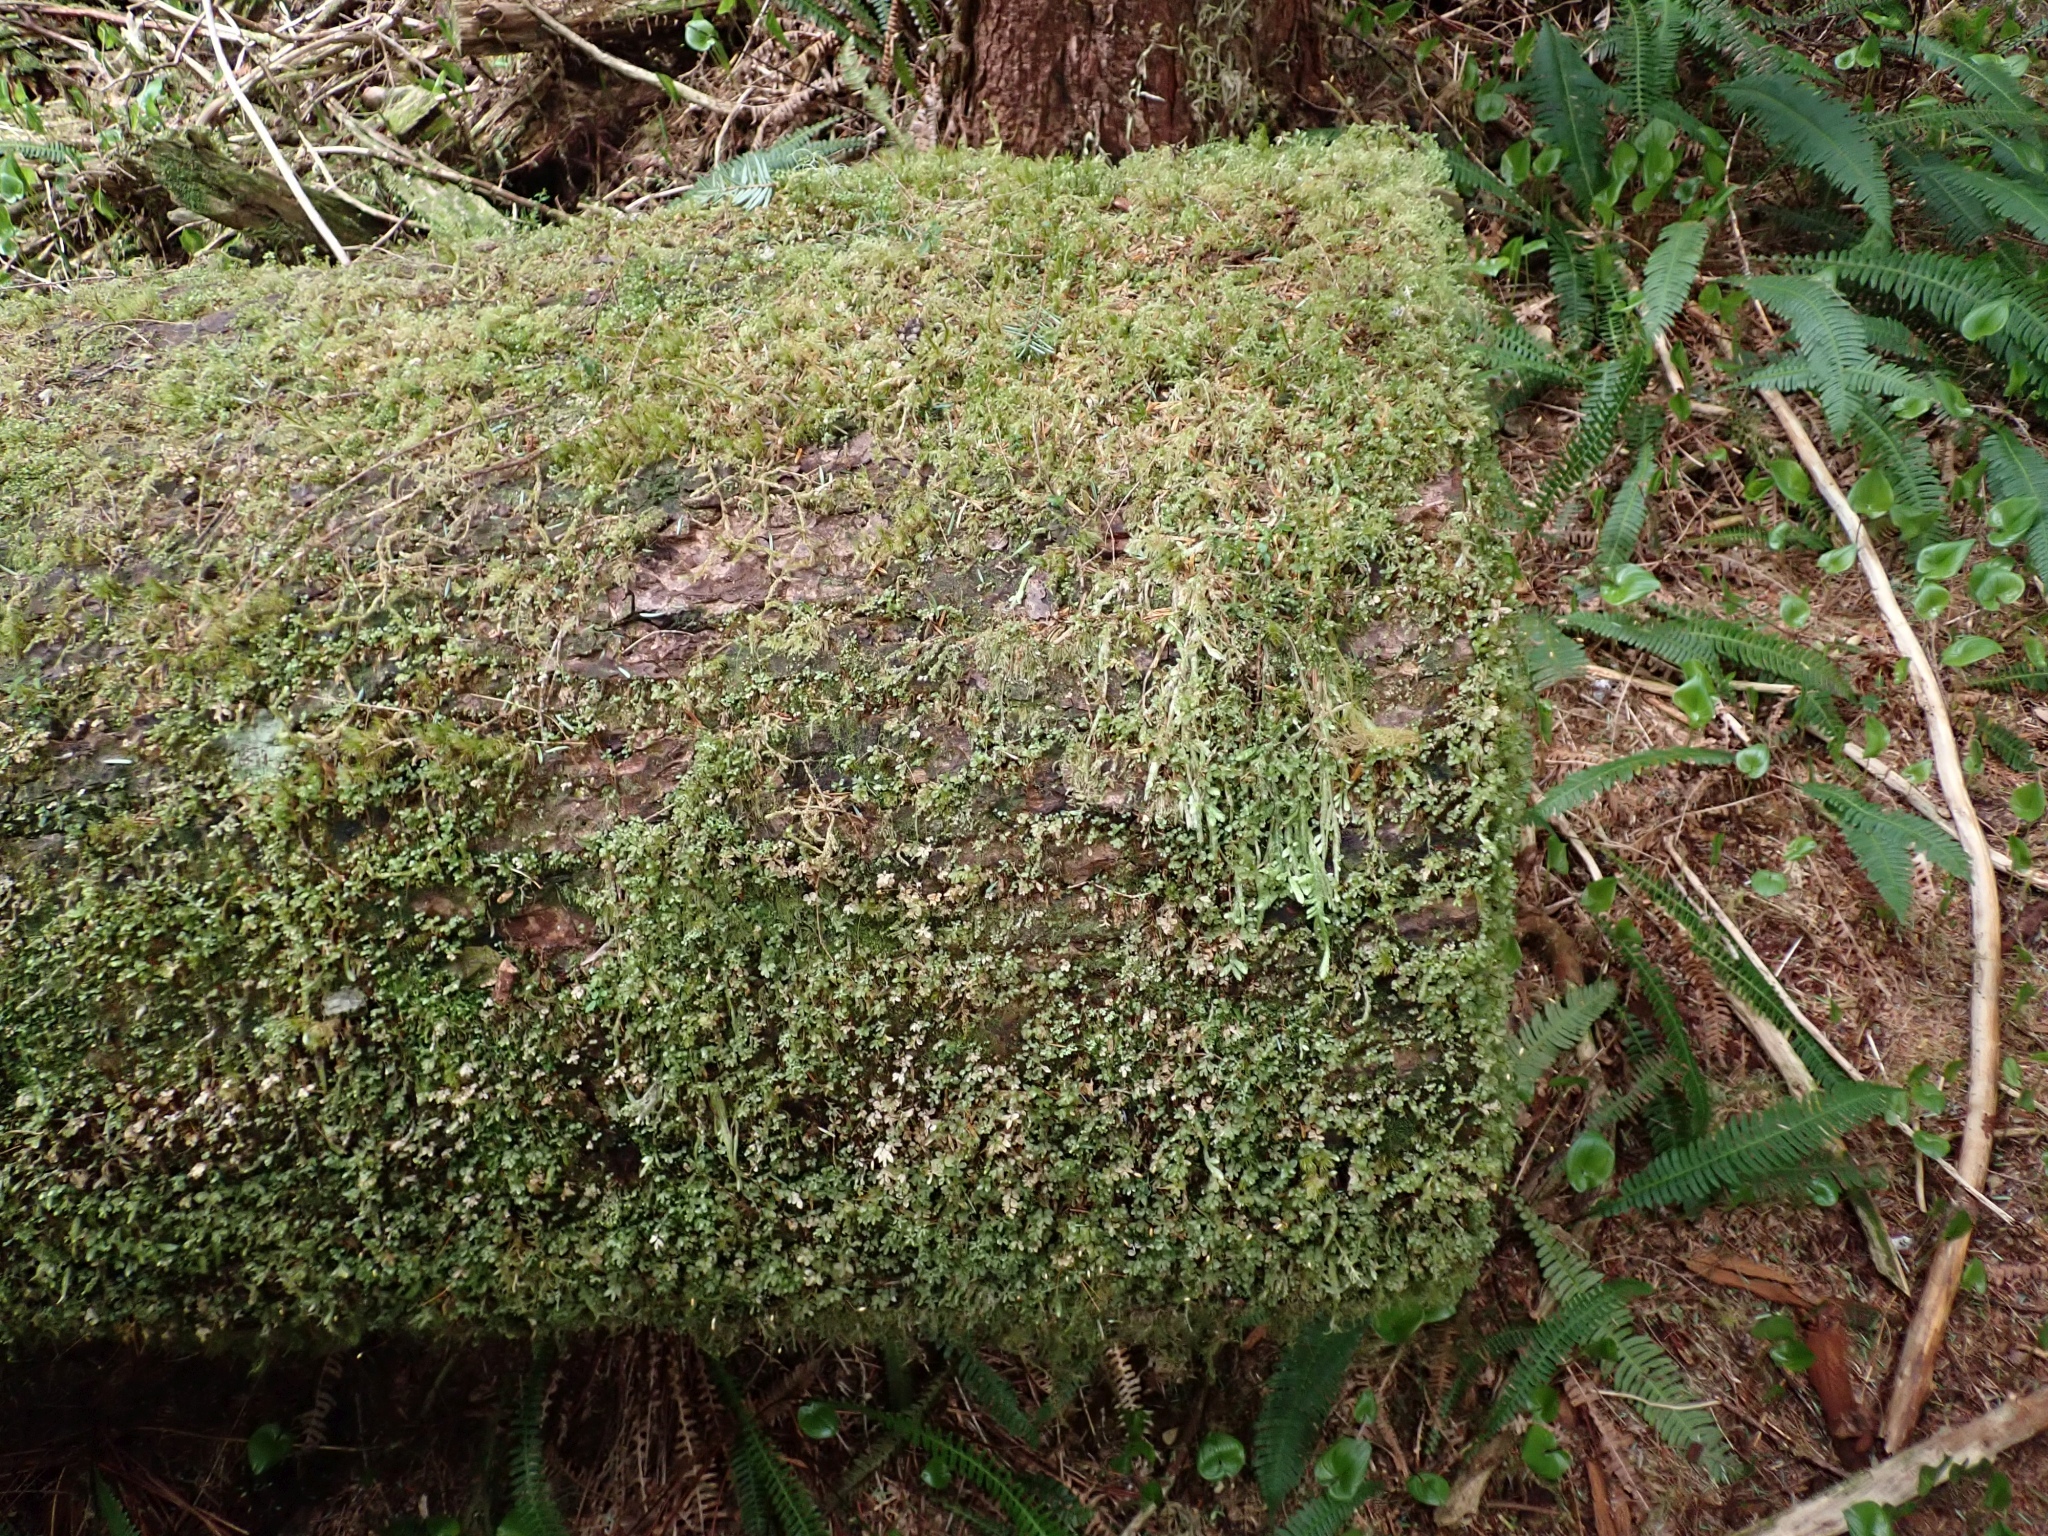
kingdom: Plantae
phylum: Bryophyta
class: Bryopsida
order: Hypnales
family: Plagiotheciaceae
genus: Plagiothecium
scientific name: Plagiothecium undulatum
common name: Waved silk-moss
